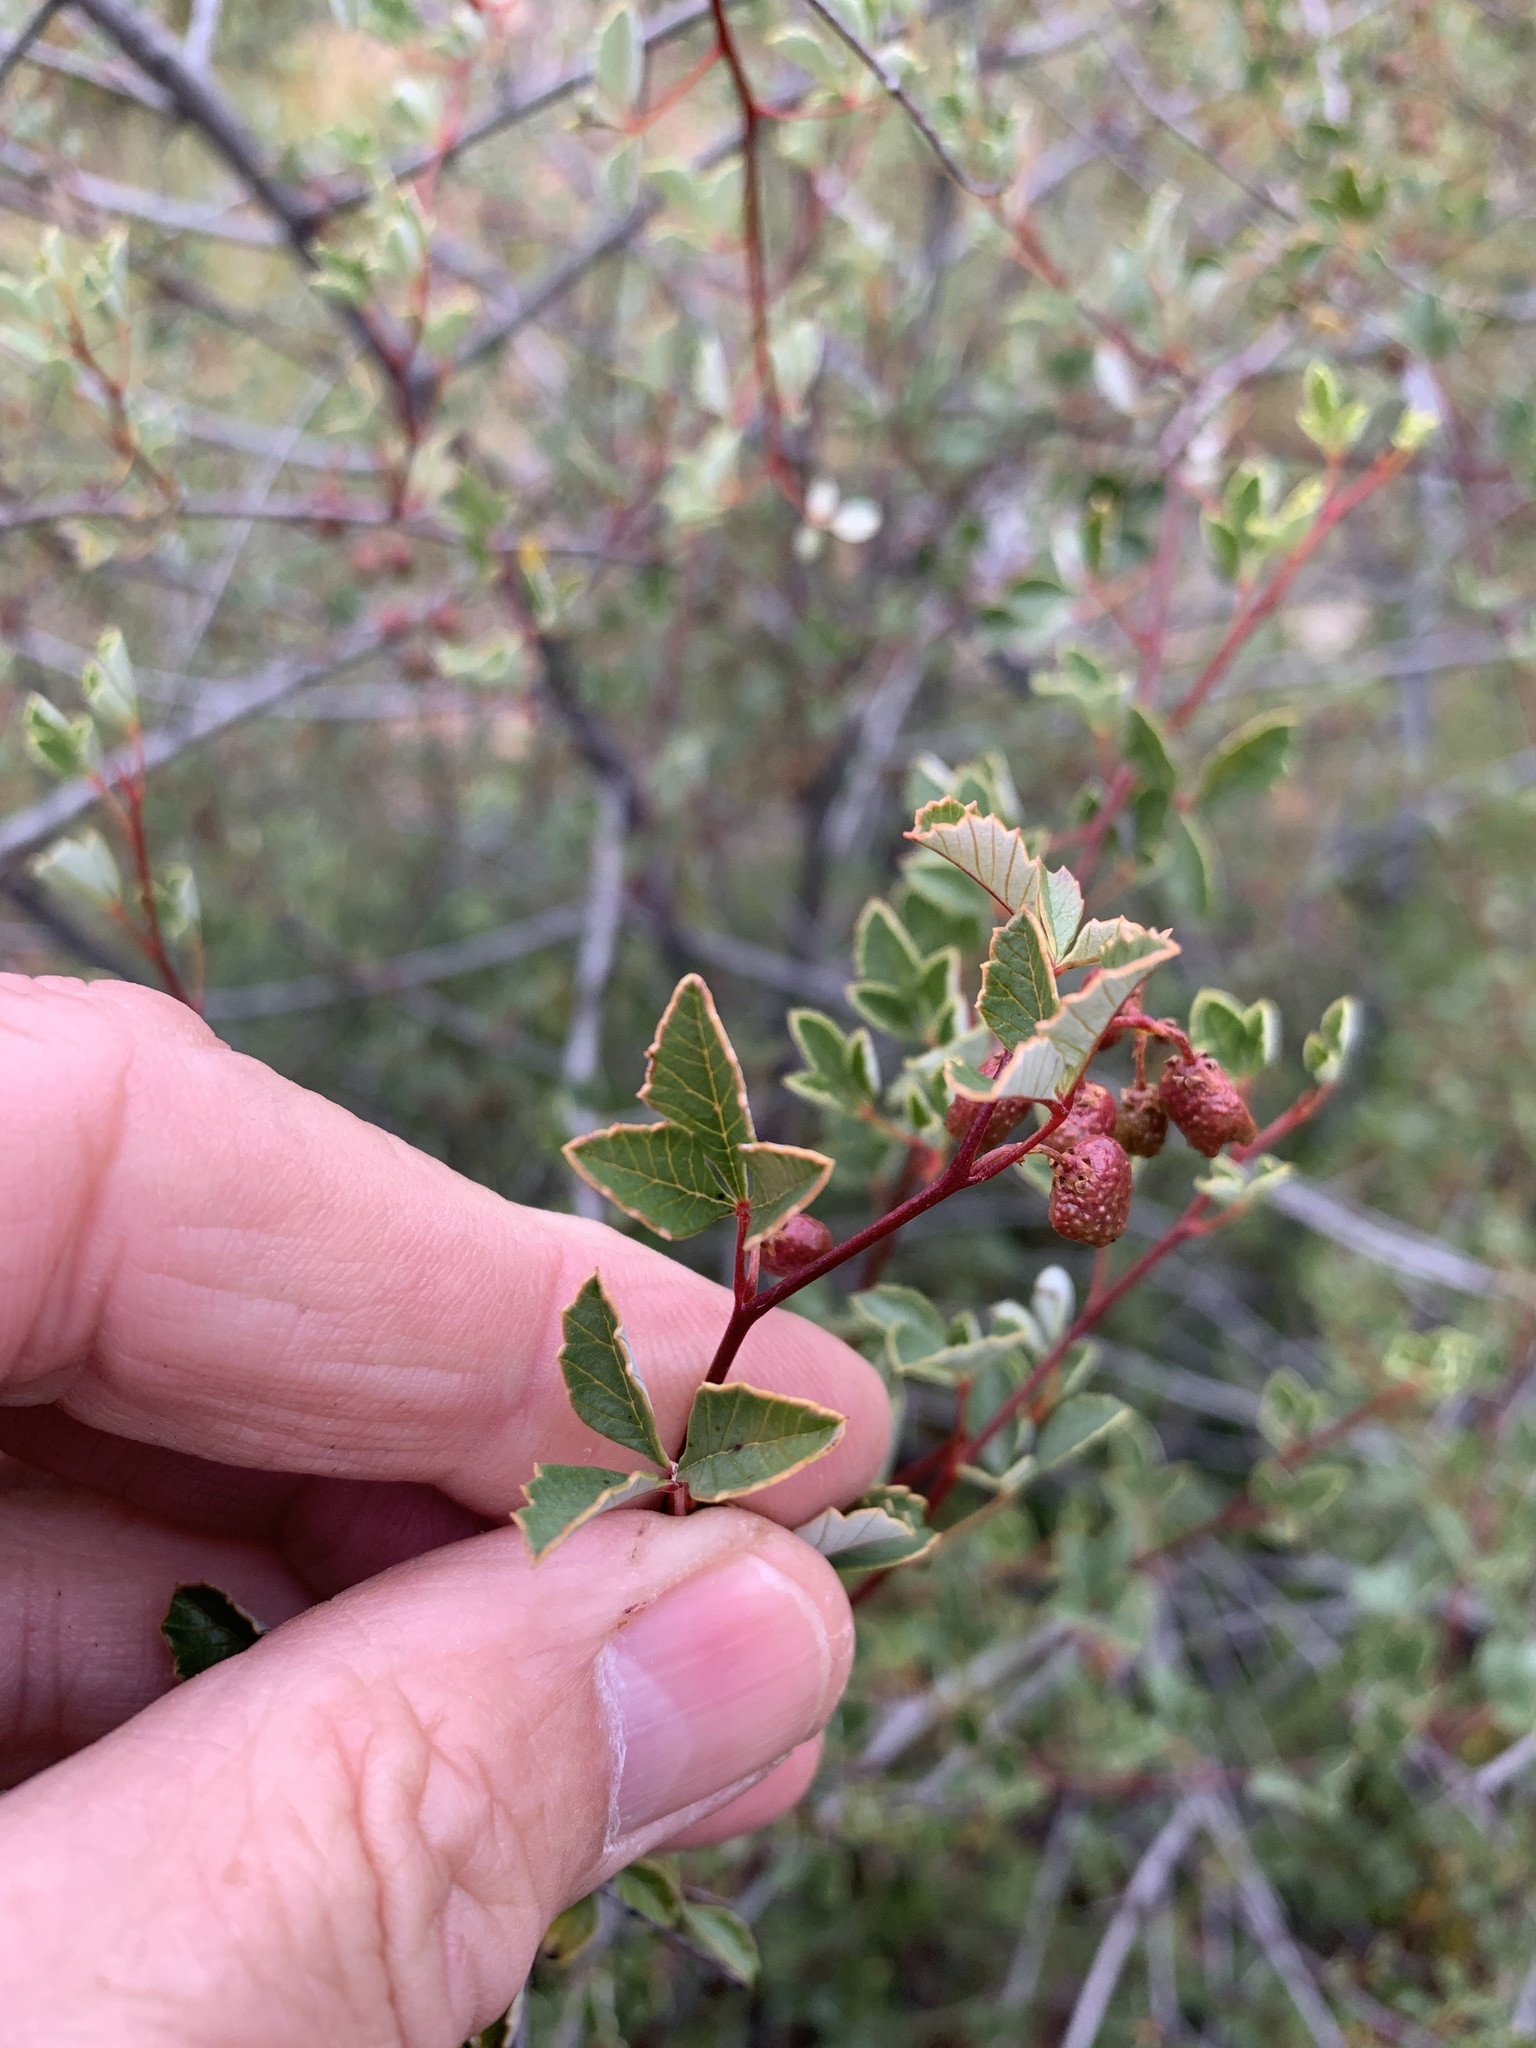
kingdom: Plantae
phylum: Tracheophyta
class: Magnoliopsida
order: Sapindales
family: Anacardiaceae
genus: Searsia
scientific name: Searsia dissecta
